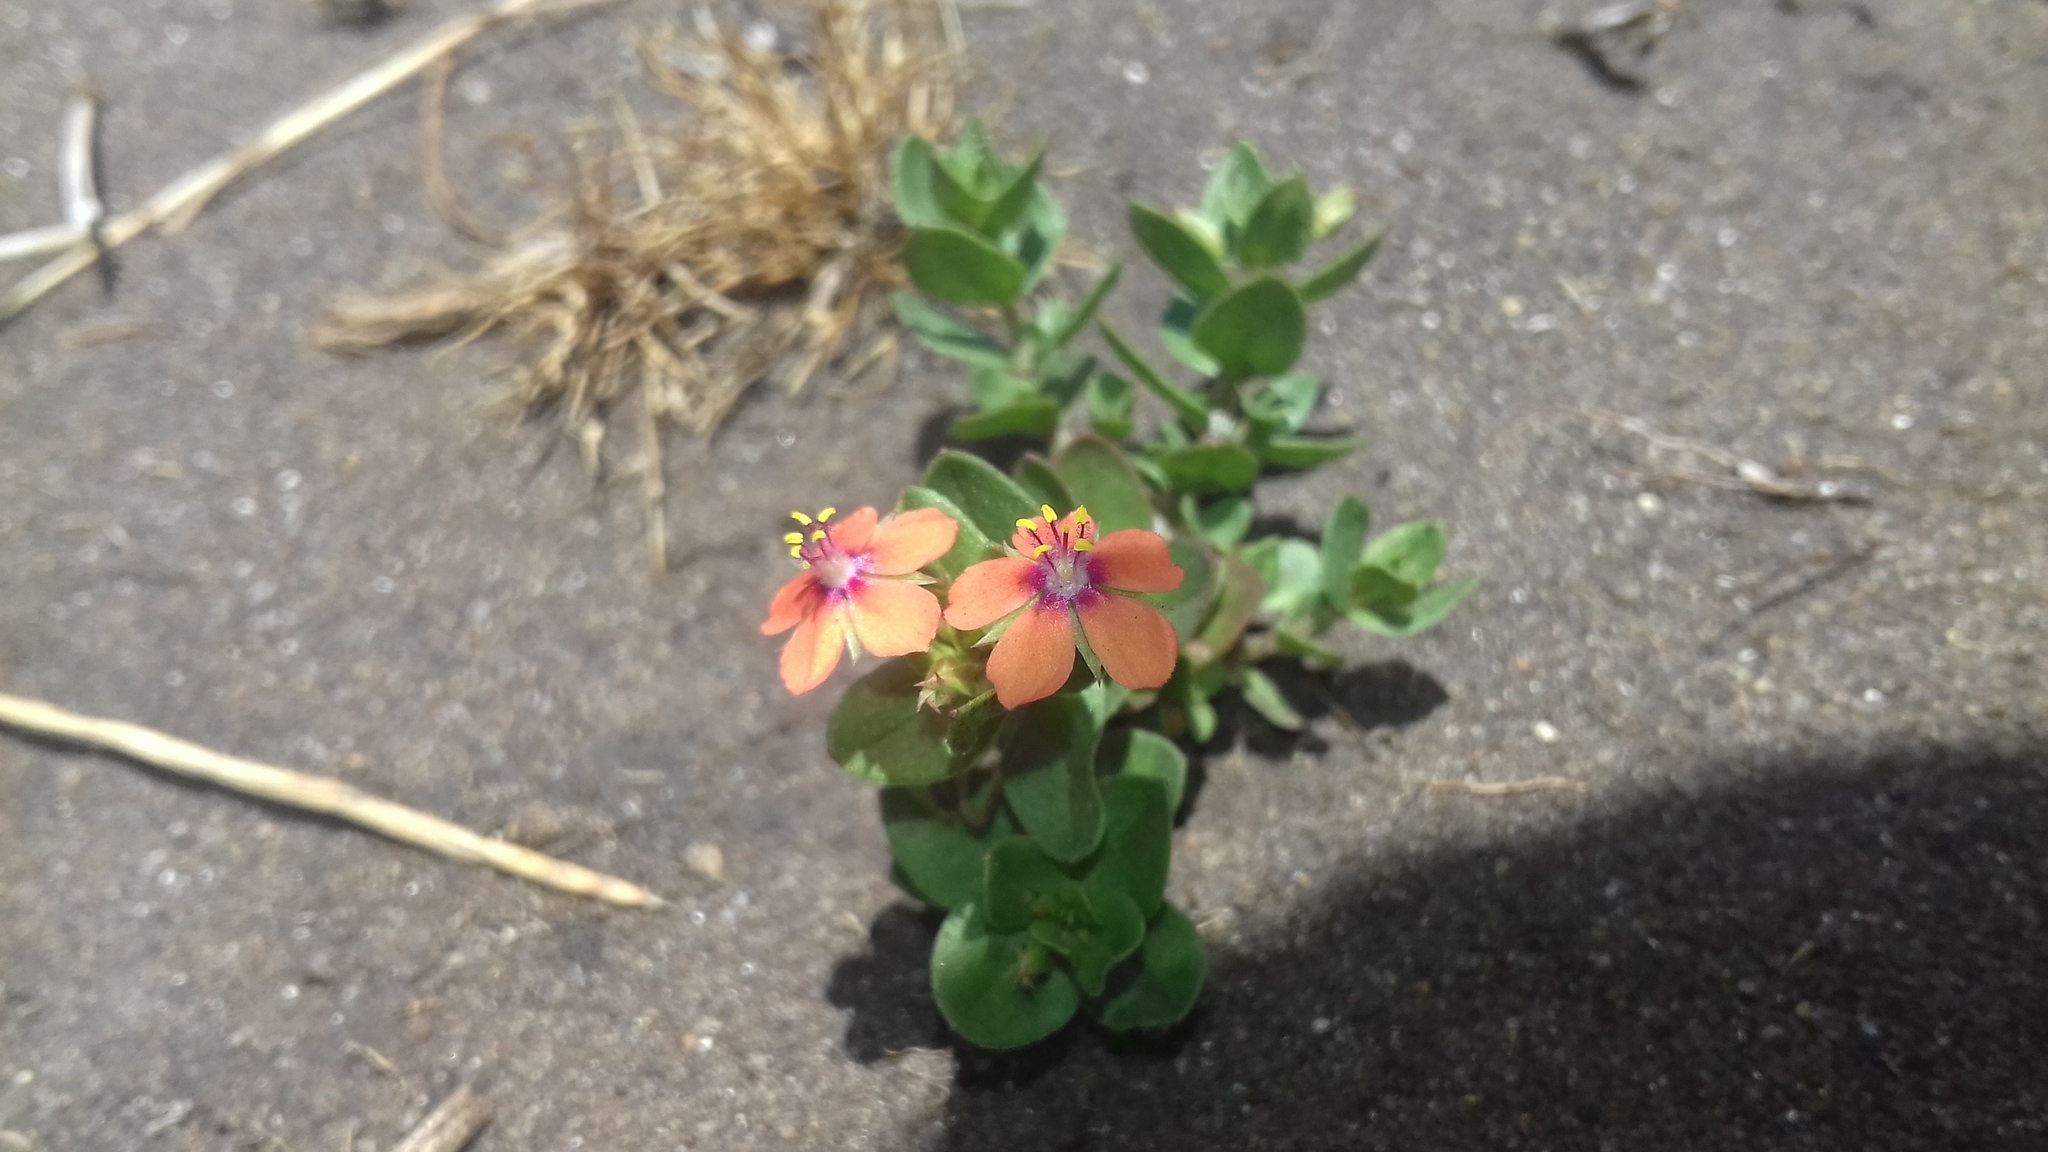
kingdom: Plantae
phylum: Tracheophyta
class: Magnoliopsida
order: Ericales
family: Primulaceae
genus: Lysimachia
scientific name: Lysimachia arvensis
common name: Scarlet pimpernel
